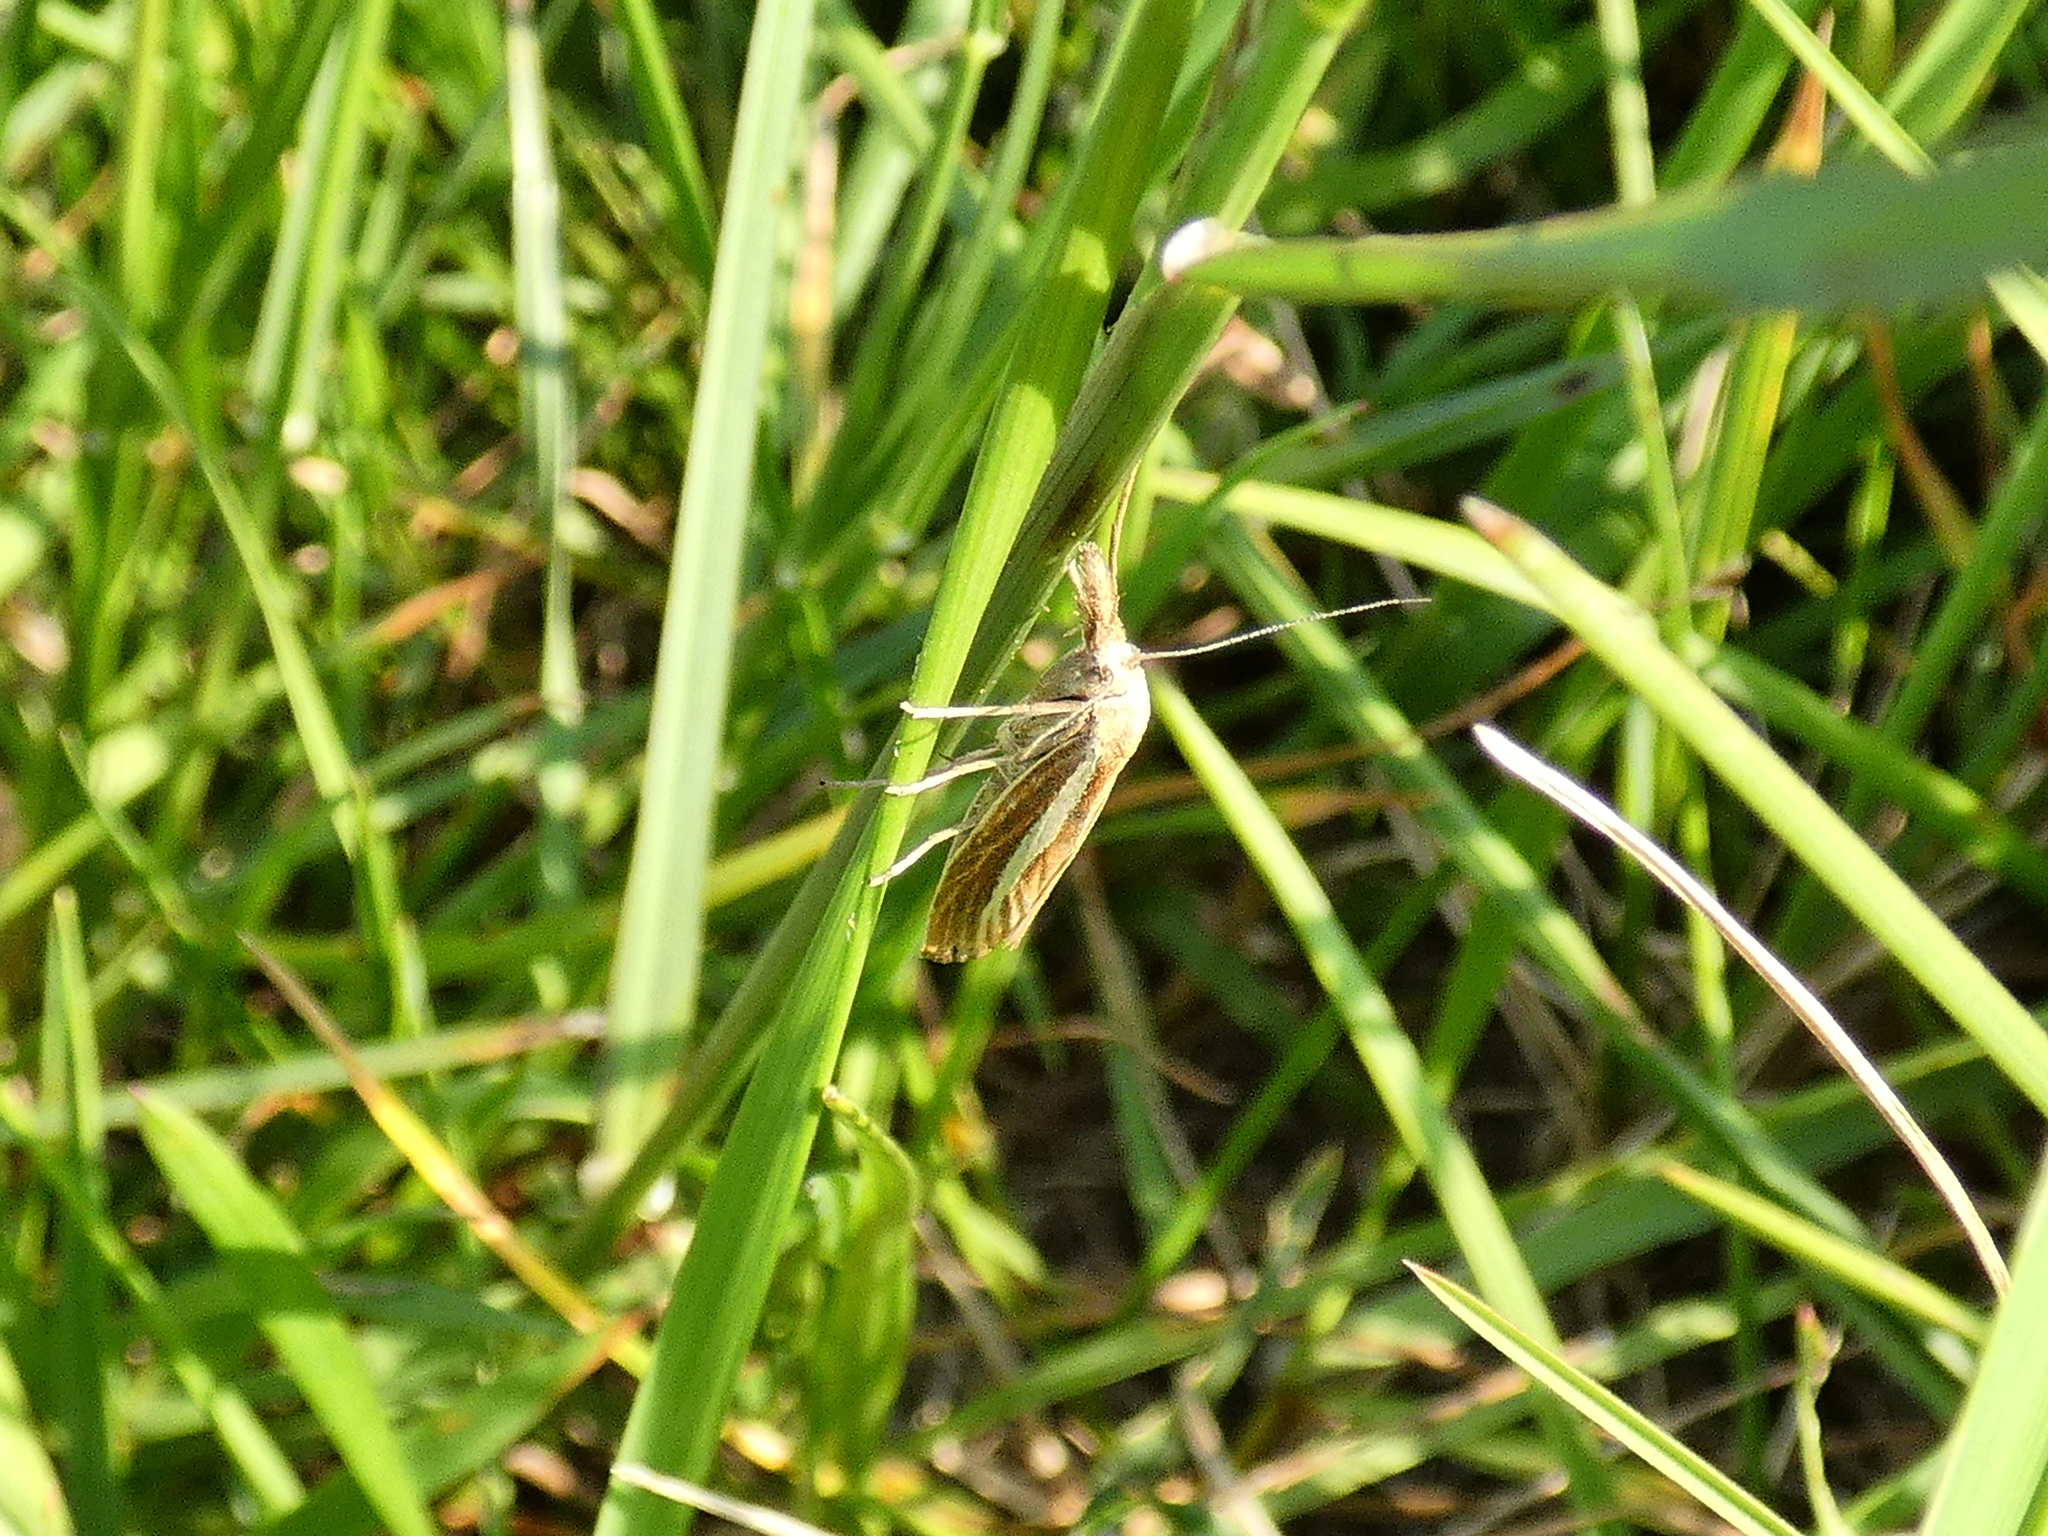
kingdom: Animalia
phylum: Arthropoda
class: Insecta
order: Lepidoptera
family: Crambidae
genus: Agriphila
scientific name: Agriphila tristellus
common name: Common grass-veneer
